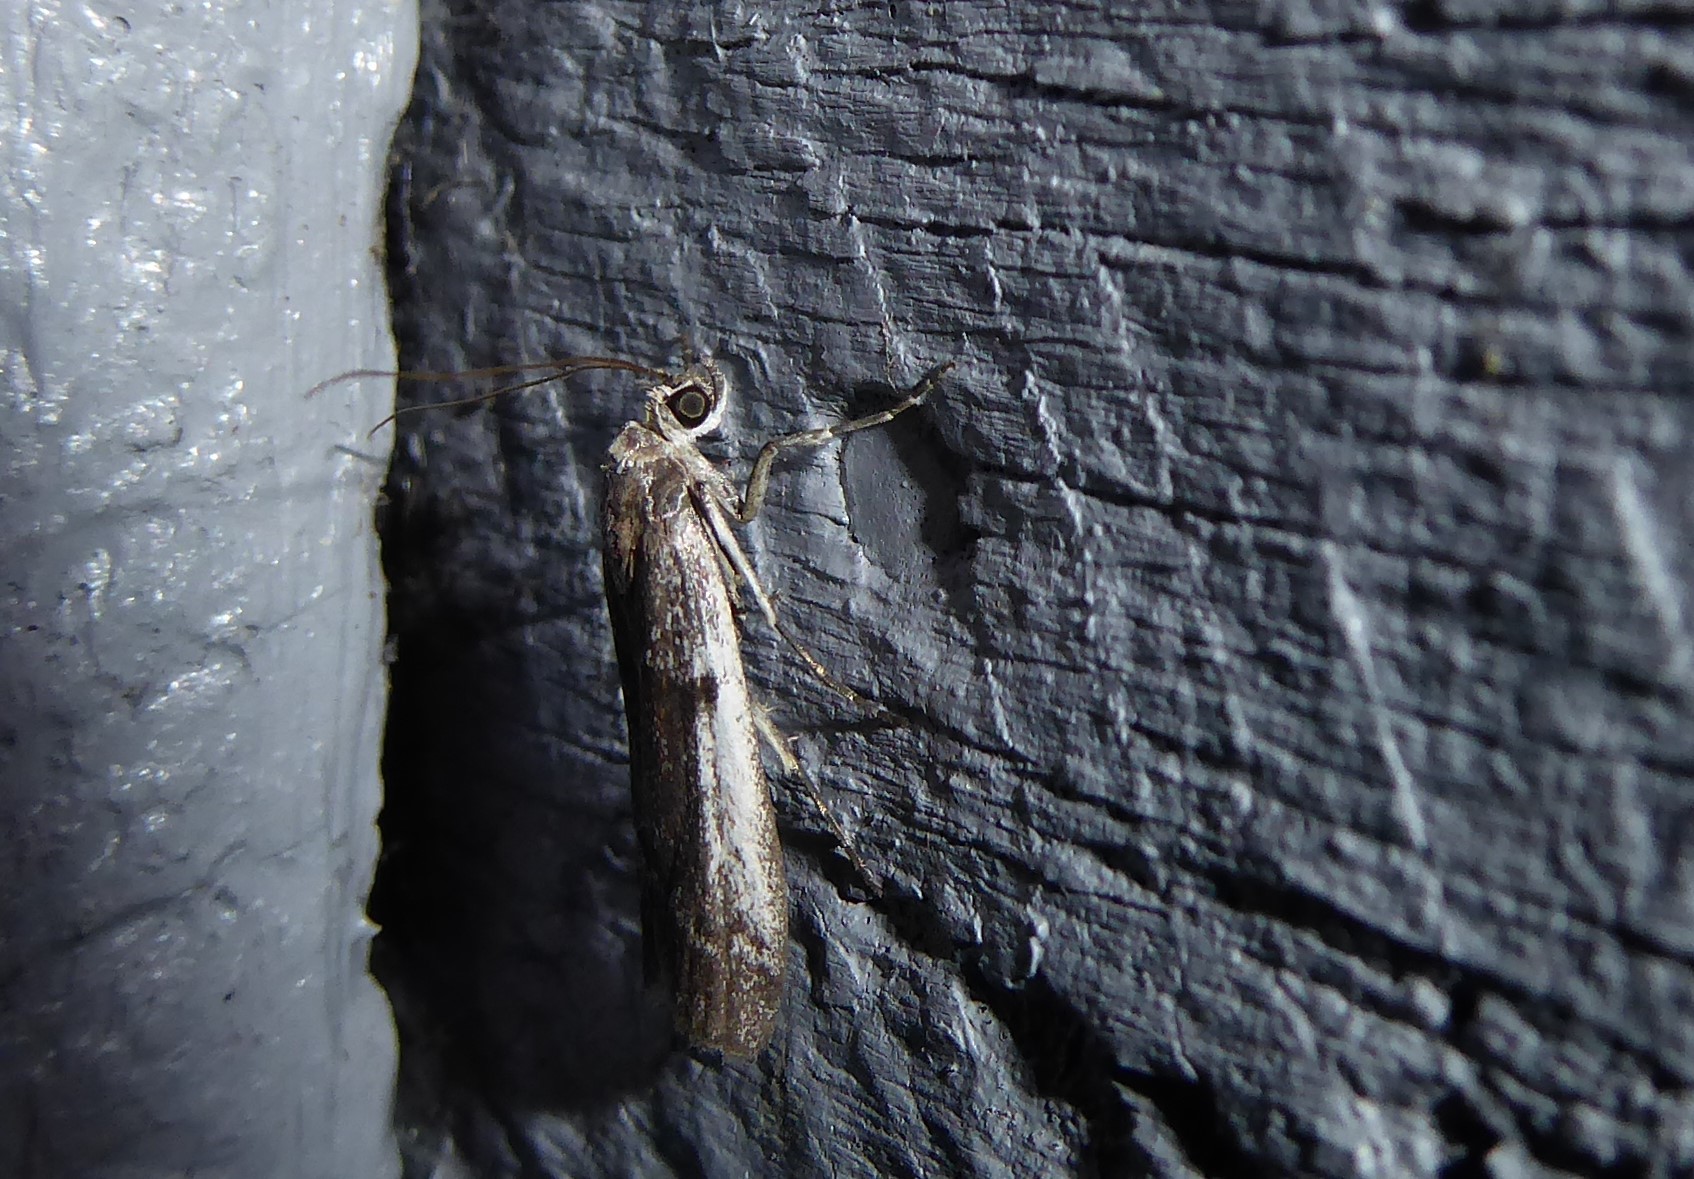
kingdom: Animalia
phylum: Arthropoda
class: Insecta
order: Lepidoptera
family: Pyralidae
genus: Patagoniodes
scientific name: Patagoniodes farinaria
